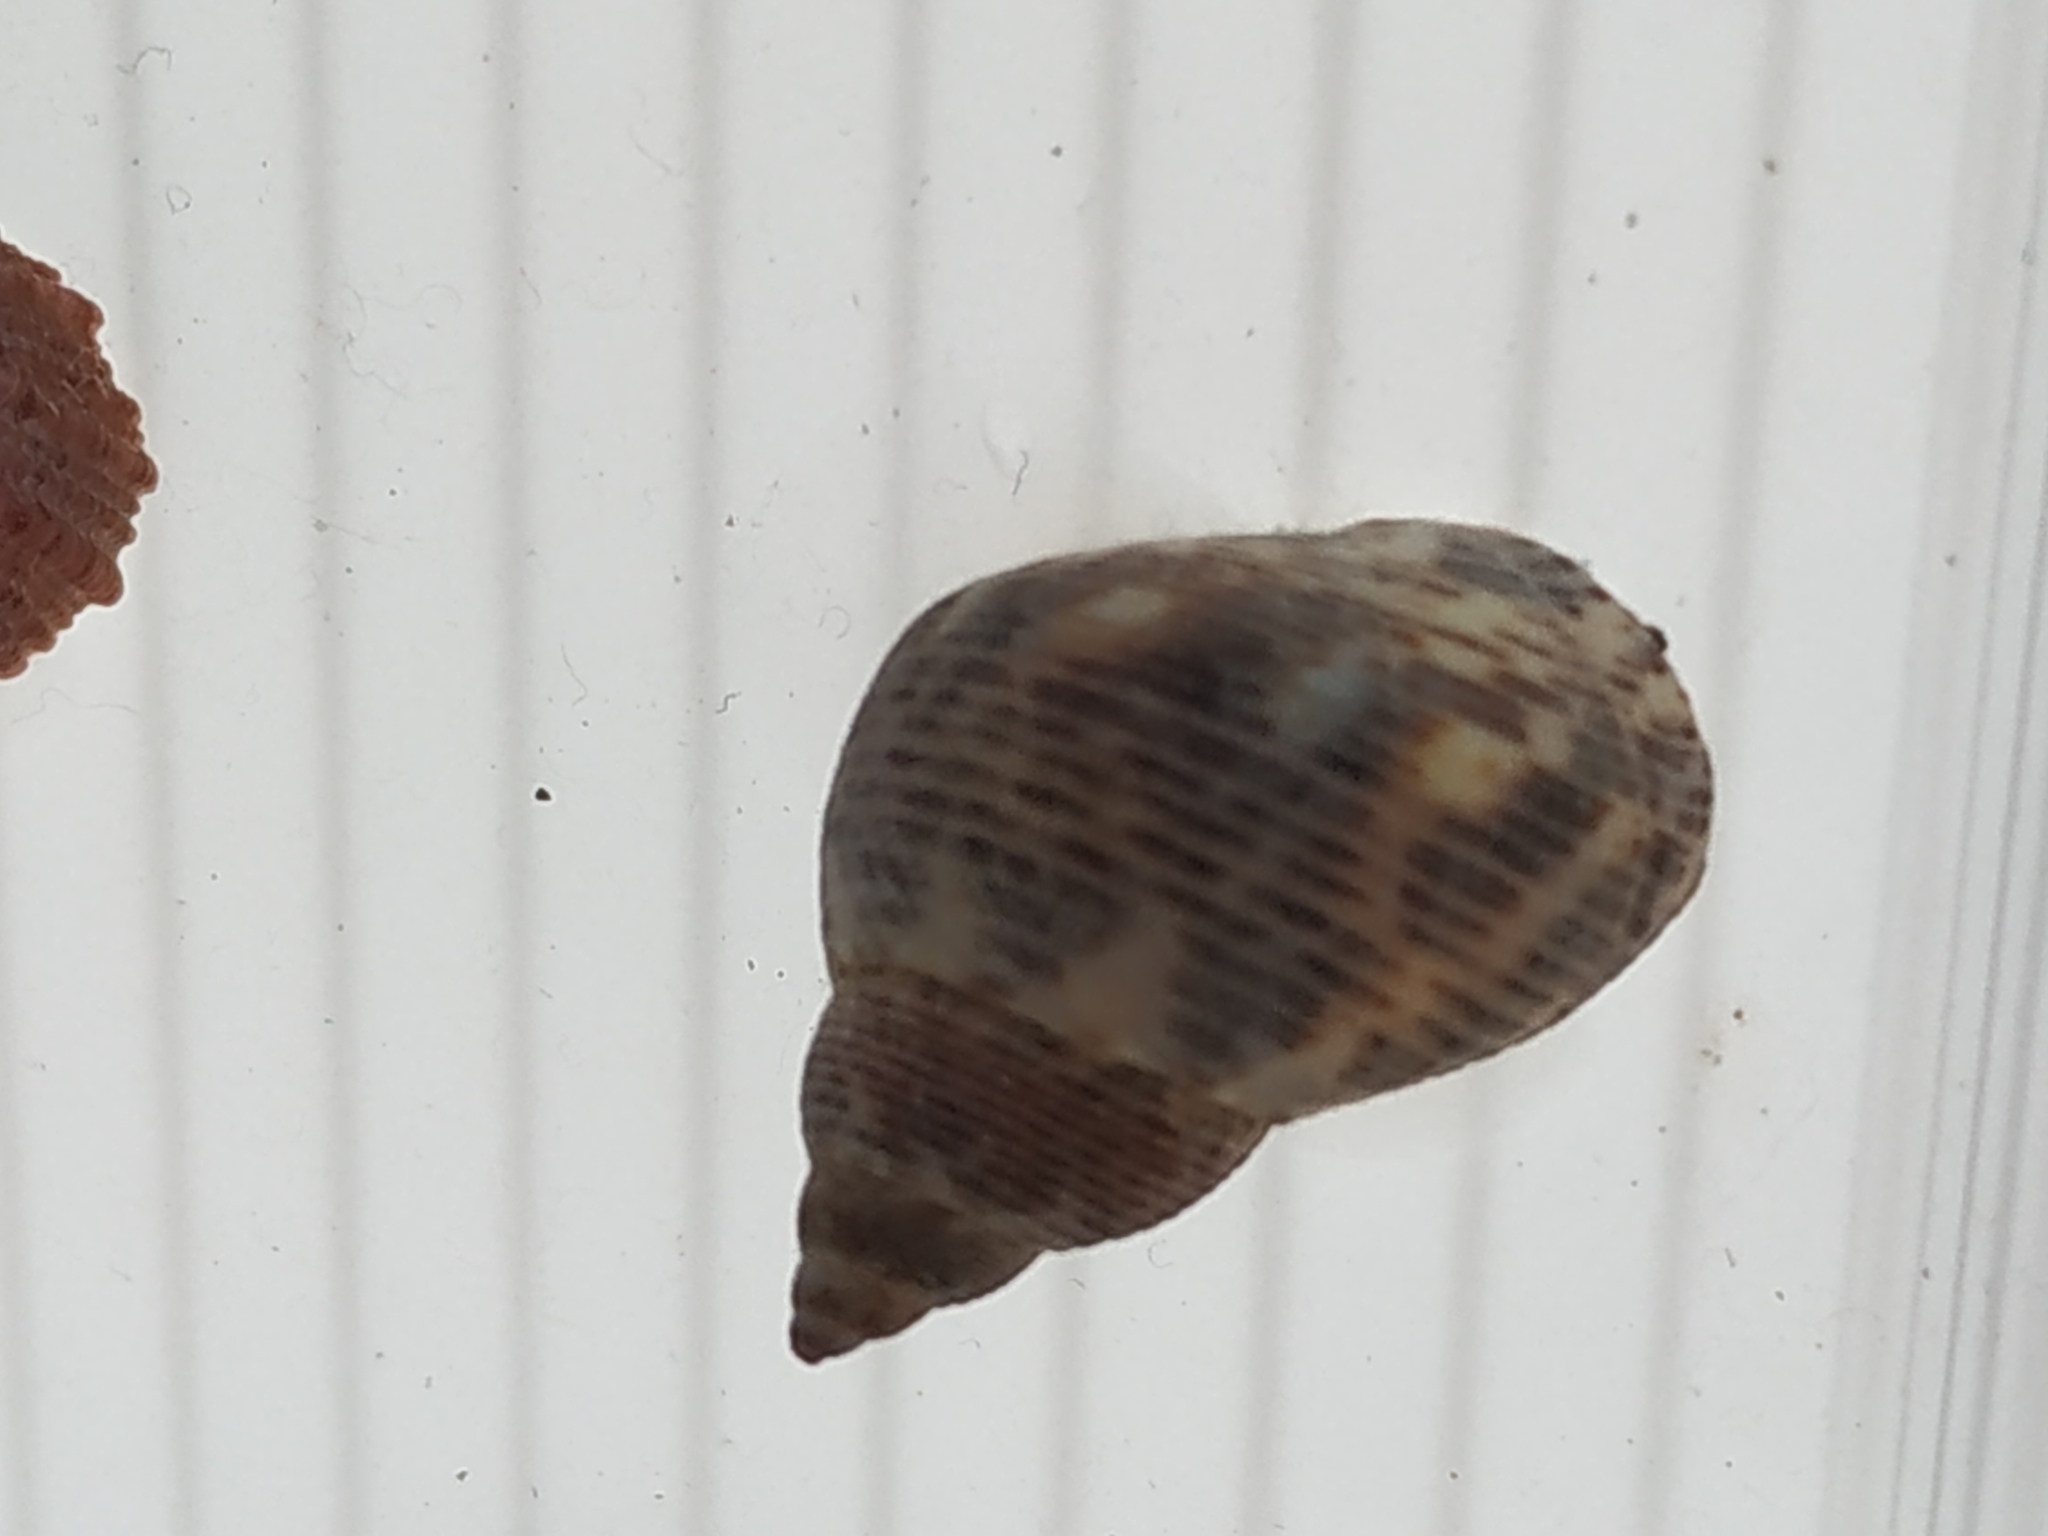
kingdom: Animalia
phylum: Mollusca
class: Gastropoda
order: Littorinimorpha
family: Littorinidae
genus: Littoraria
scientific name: Littoraria undulata
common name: Robust shell
